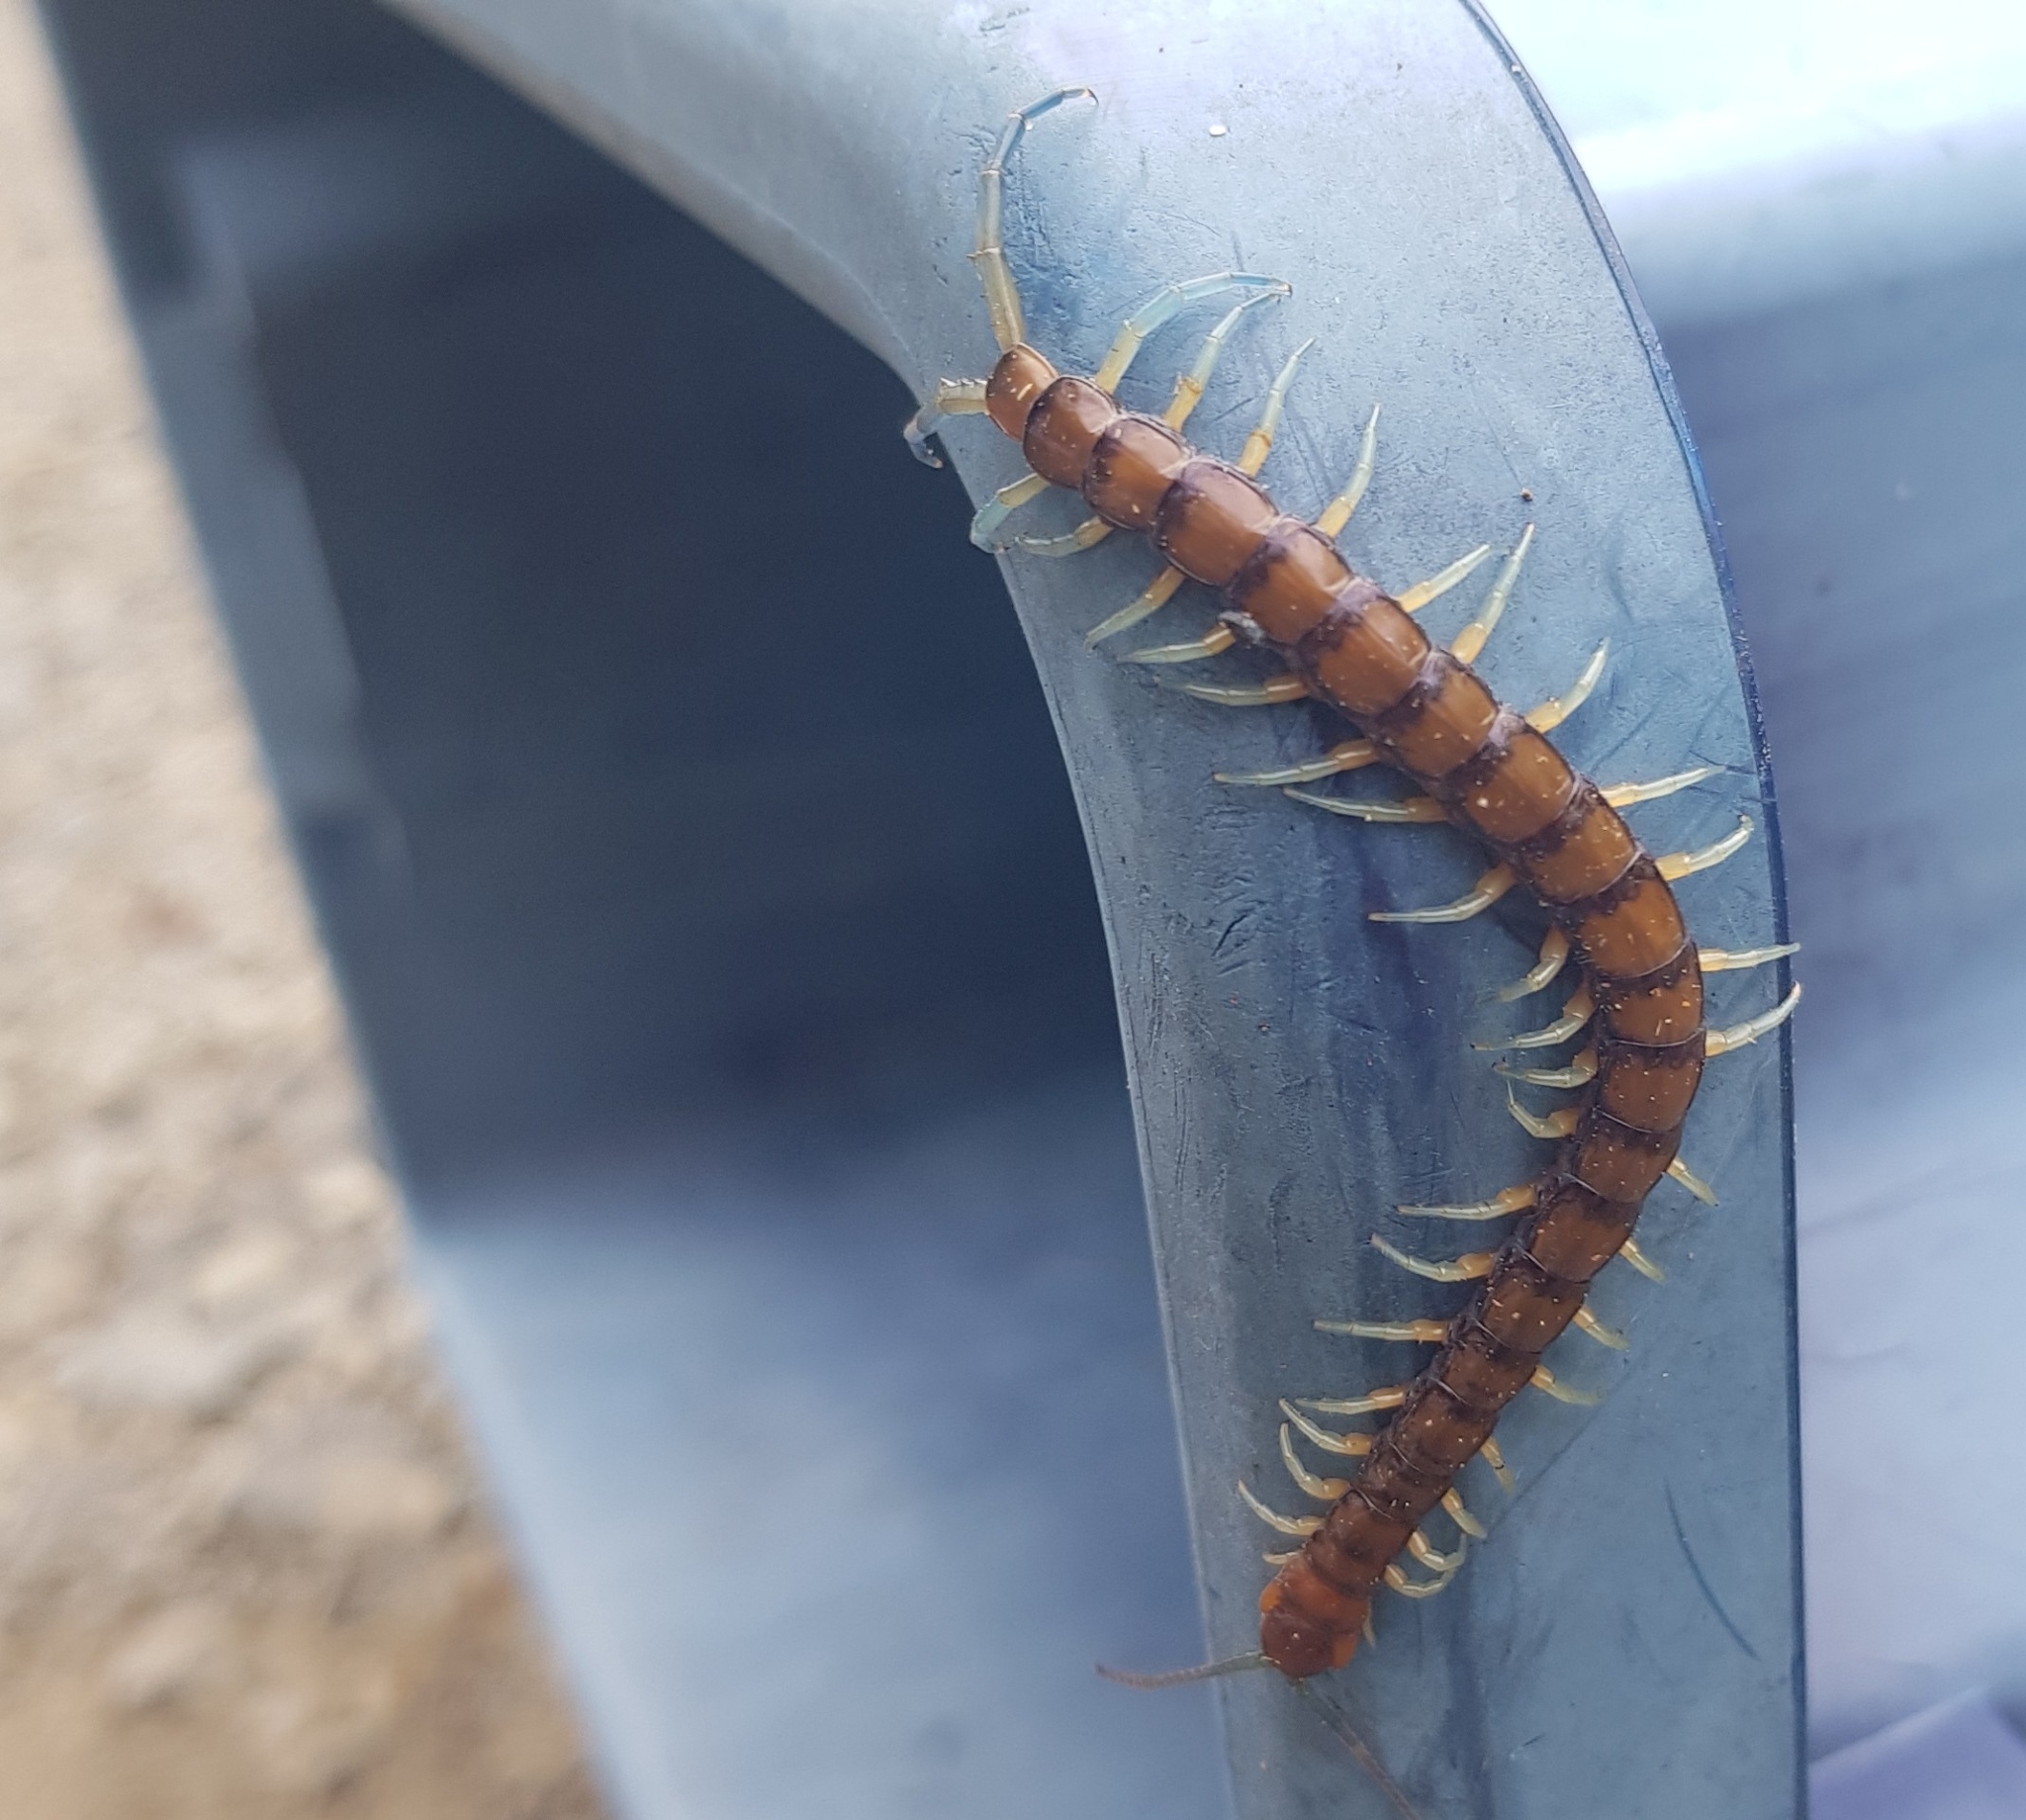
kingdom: Animalia
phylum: Arthropoda
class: Chilopoda
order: Scolopendromorpha
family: Scolopendridae
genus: Cormocephalus
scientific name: Cormocephalus rubriceps
